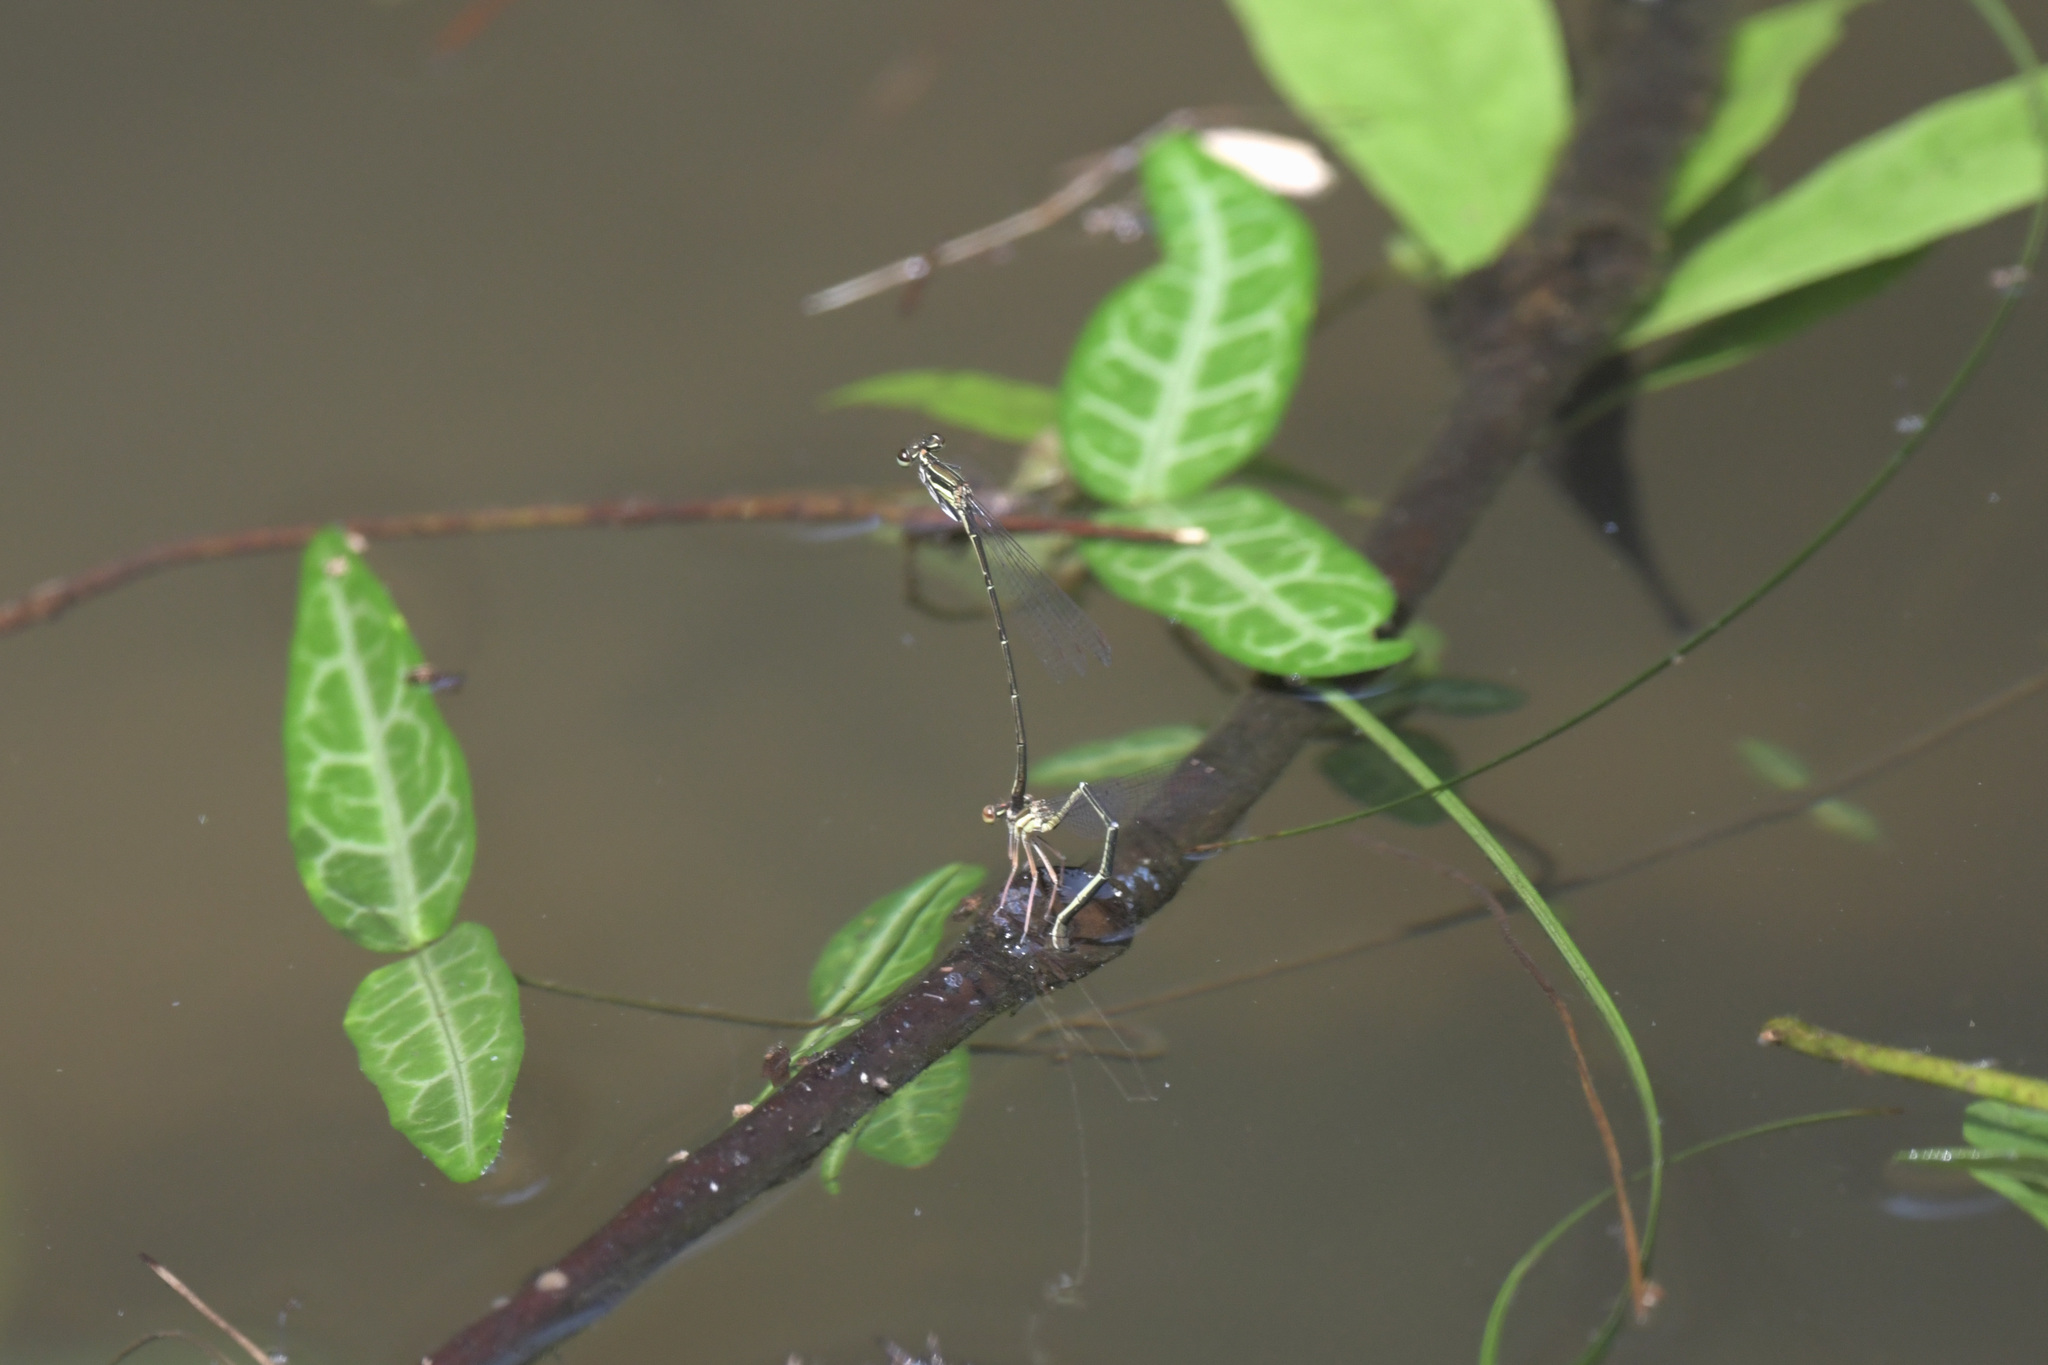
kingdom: Animalia
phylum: Arthropoda
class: Insecta
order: Odonata
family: Platycnemididae
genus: Platycnemis
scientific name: Platycnemis phyllopoda
